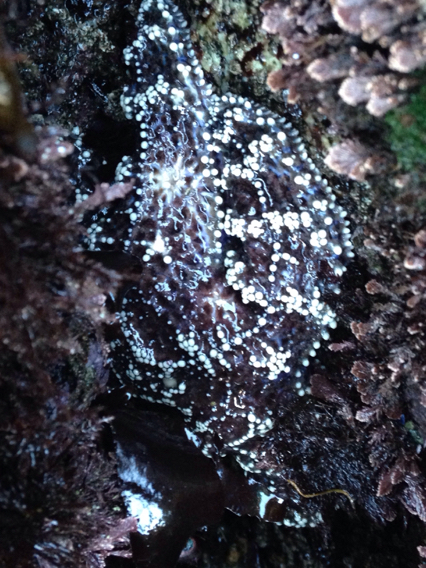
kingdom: Animalia
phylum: Echinodermata
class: Asteroidea
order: Forcipulatida
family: Asteriidae
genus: Pisaster
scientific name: Pisaster ochraceus
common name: Ochre stars
